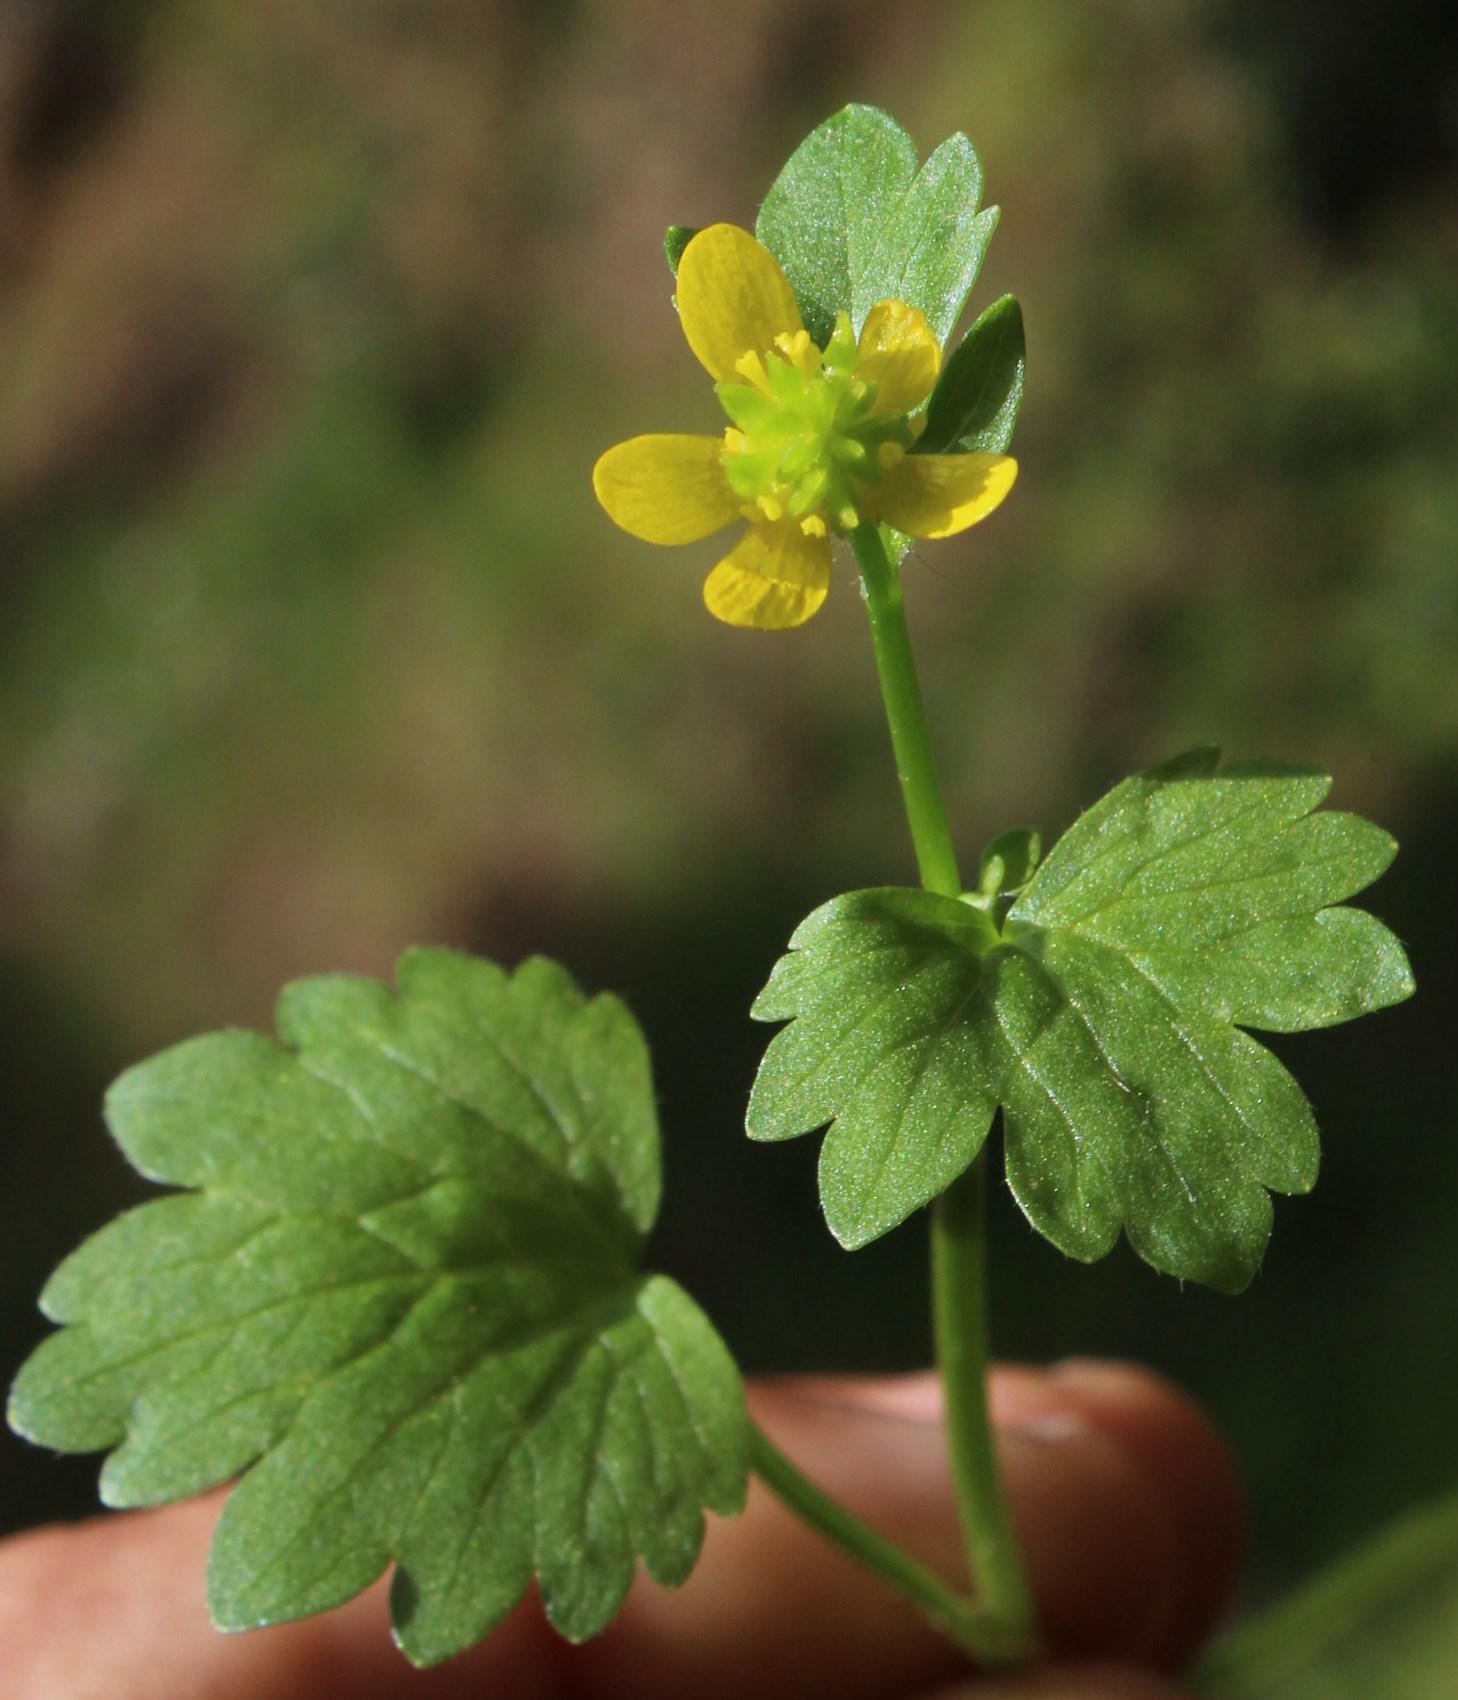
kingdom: Plantae
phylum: Tracheophyta
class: Magnoliopsida
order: Ranunculales
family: Ranunculaceae
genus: Ranunculus
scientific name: Ranunculus muricatus
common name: Rough-fruited buttercup
